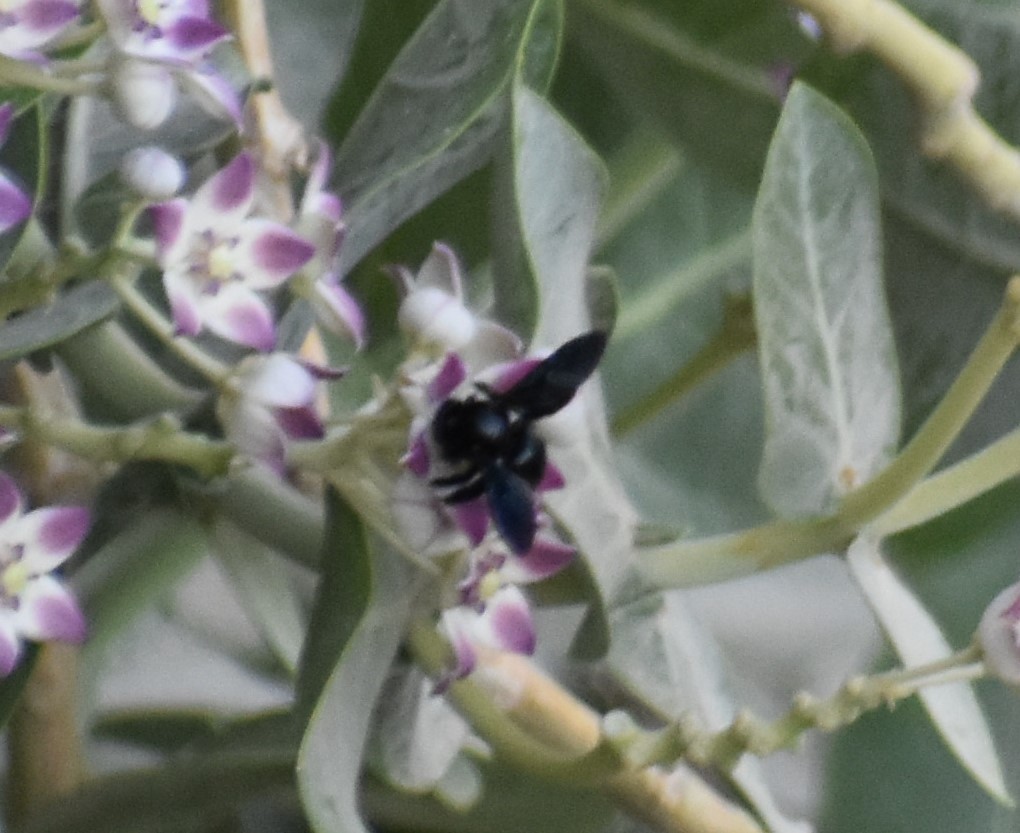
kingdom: Animalia
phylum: Arthropoda
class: Insecta
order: Hymenoptera
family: Apidae
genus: Xylocopa
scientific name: Xylocopa sulcatipes
